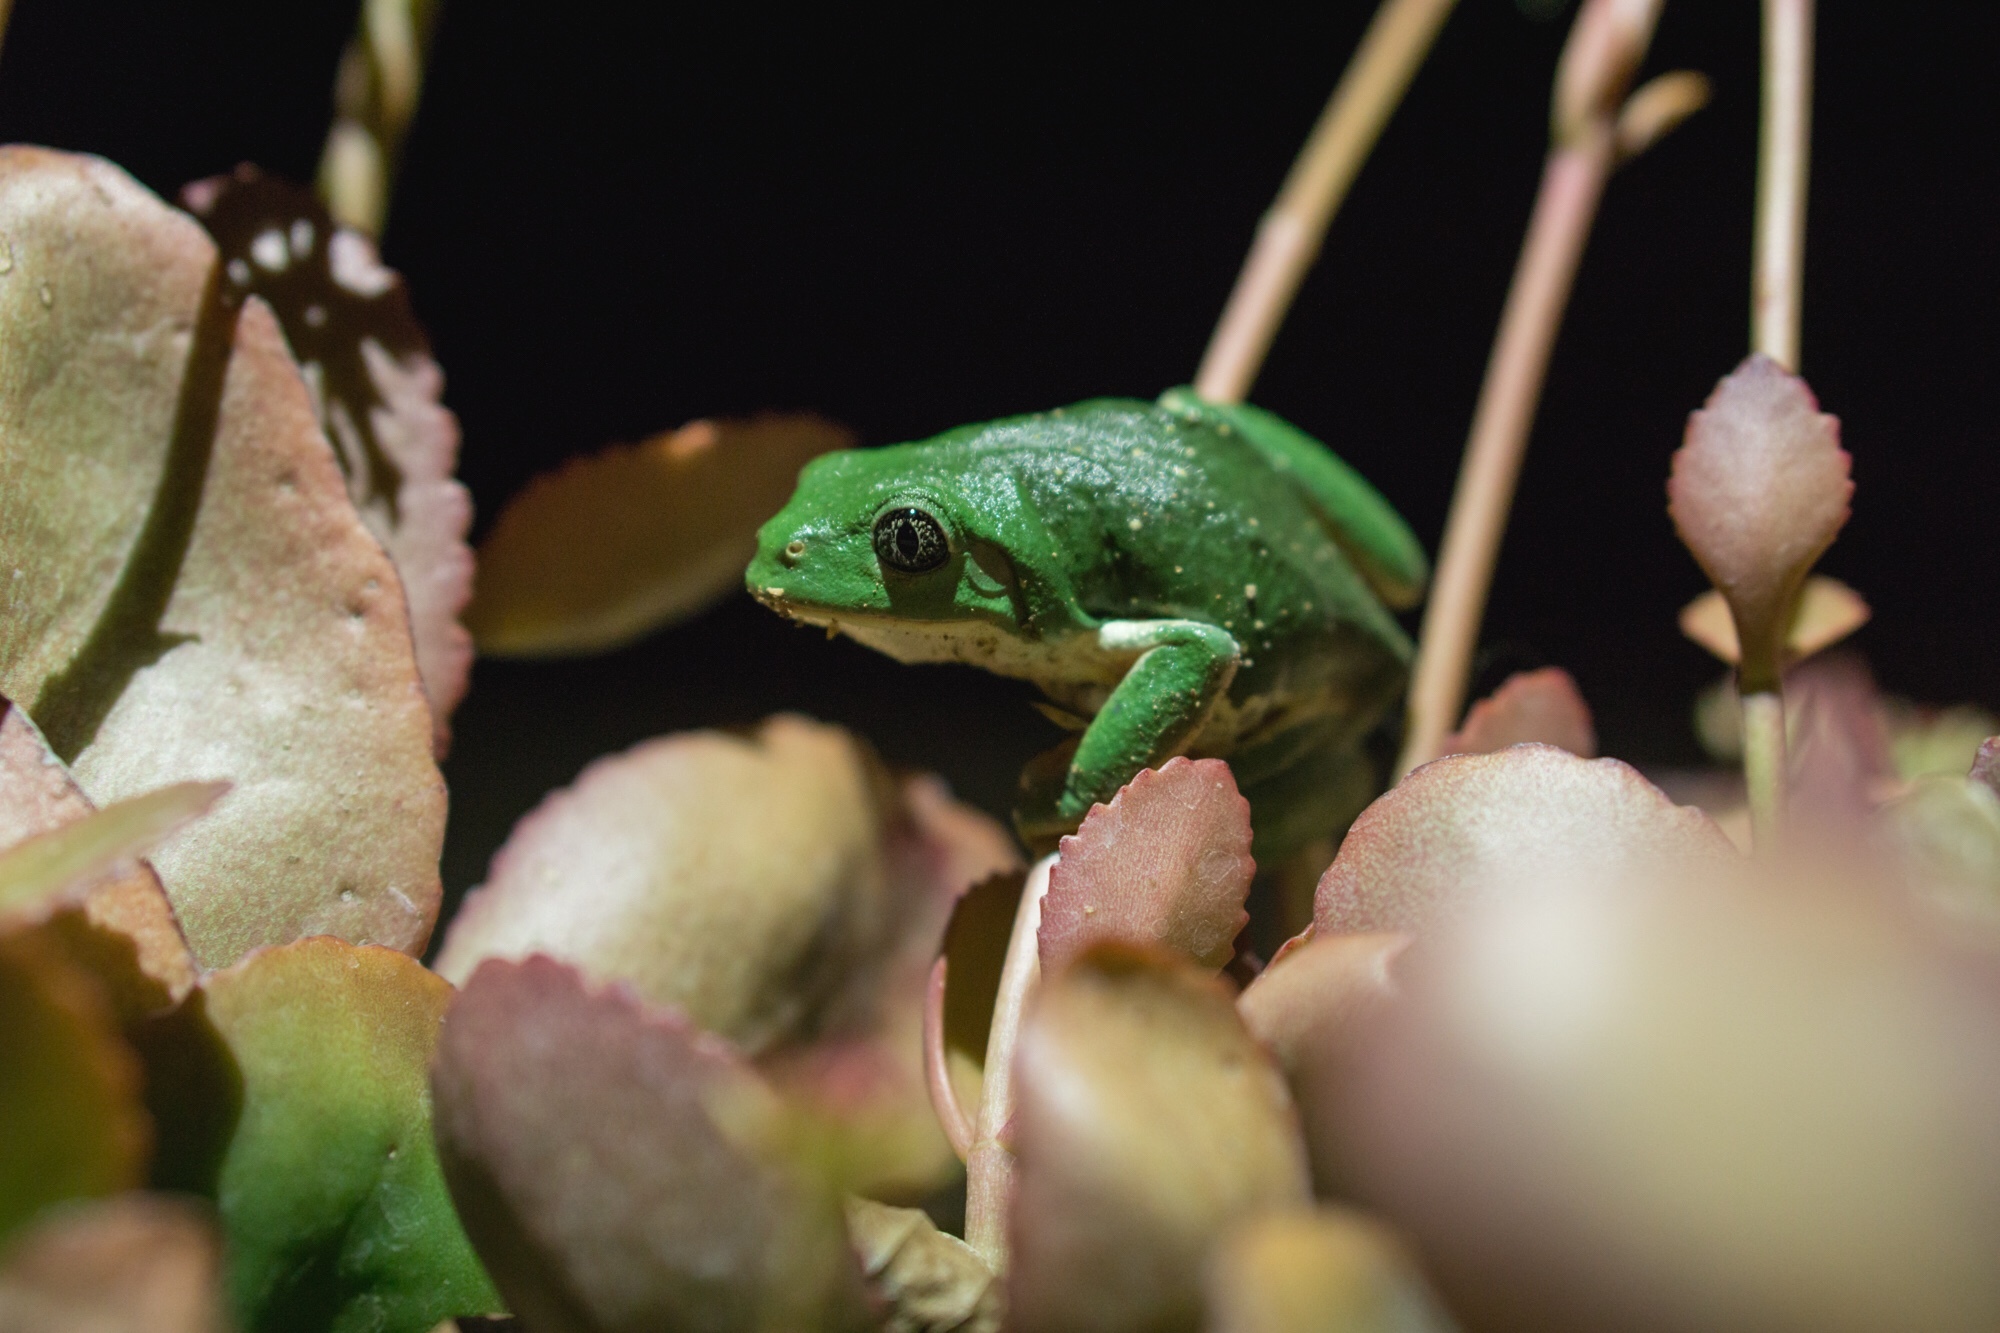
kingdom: Animalia
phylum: Chordata
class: Amphibia
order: Anura
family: Phyllomedusidae
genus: Agalychnis
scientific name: Agalychnis dacnicolor
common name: Mexican giant tree frog
